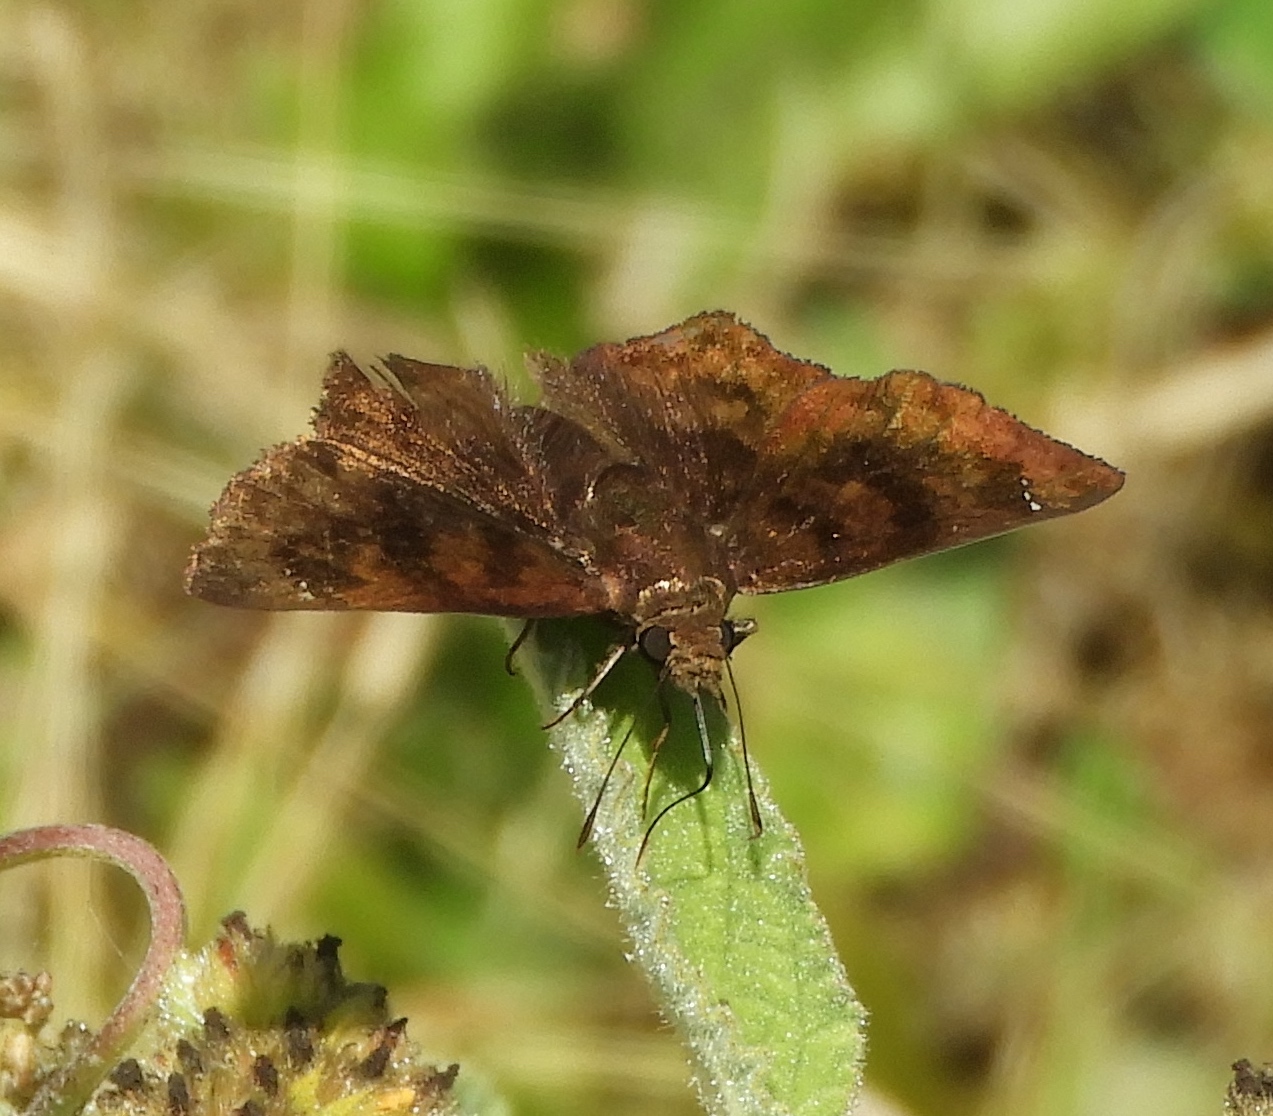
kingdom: Animalia
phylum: Arthropoda
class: Insecta
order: Lepidoptera
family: Hesperiidae
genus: Nisoniades
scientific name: Nisoniades rubescens
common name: Purplish-black skipper
